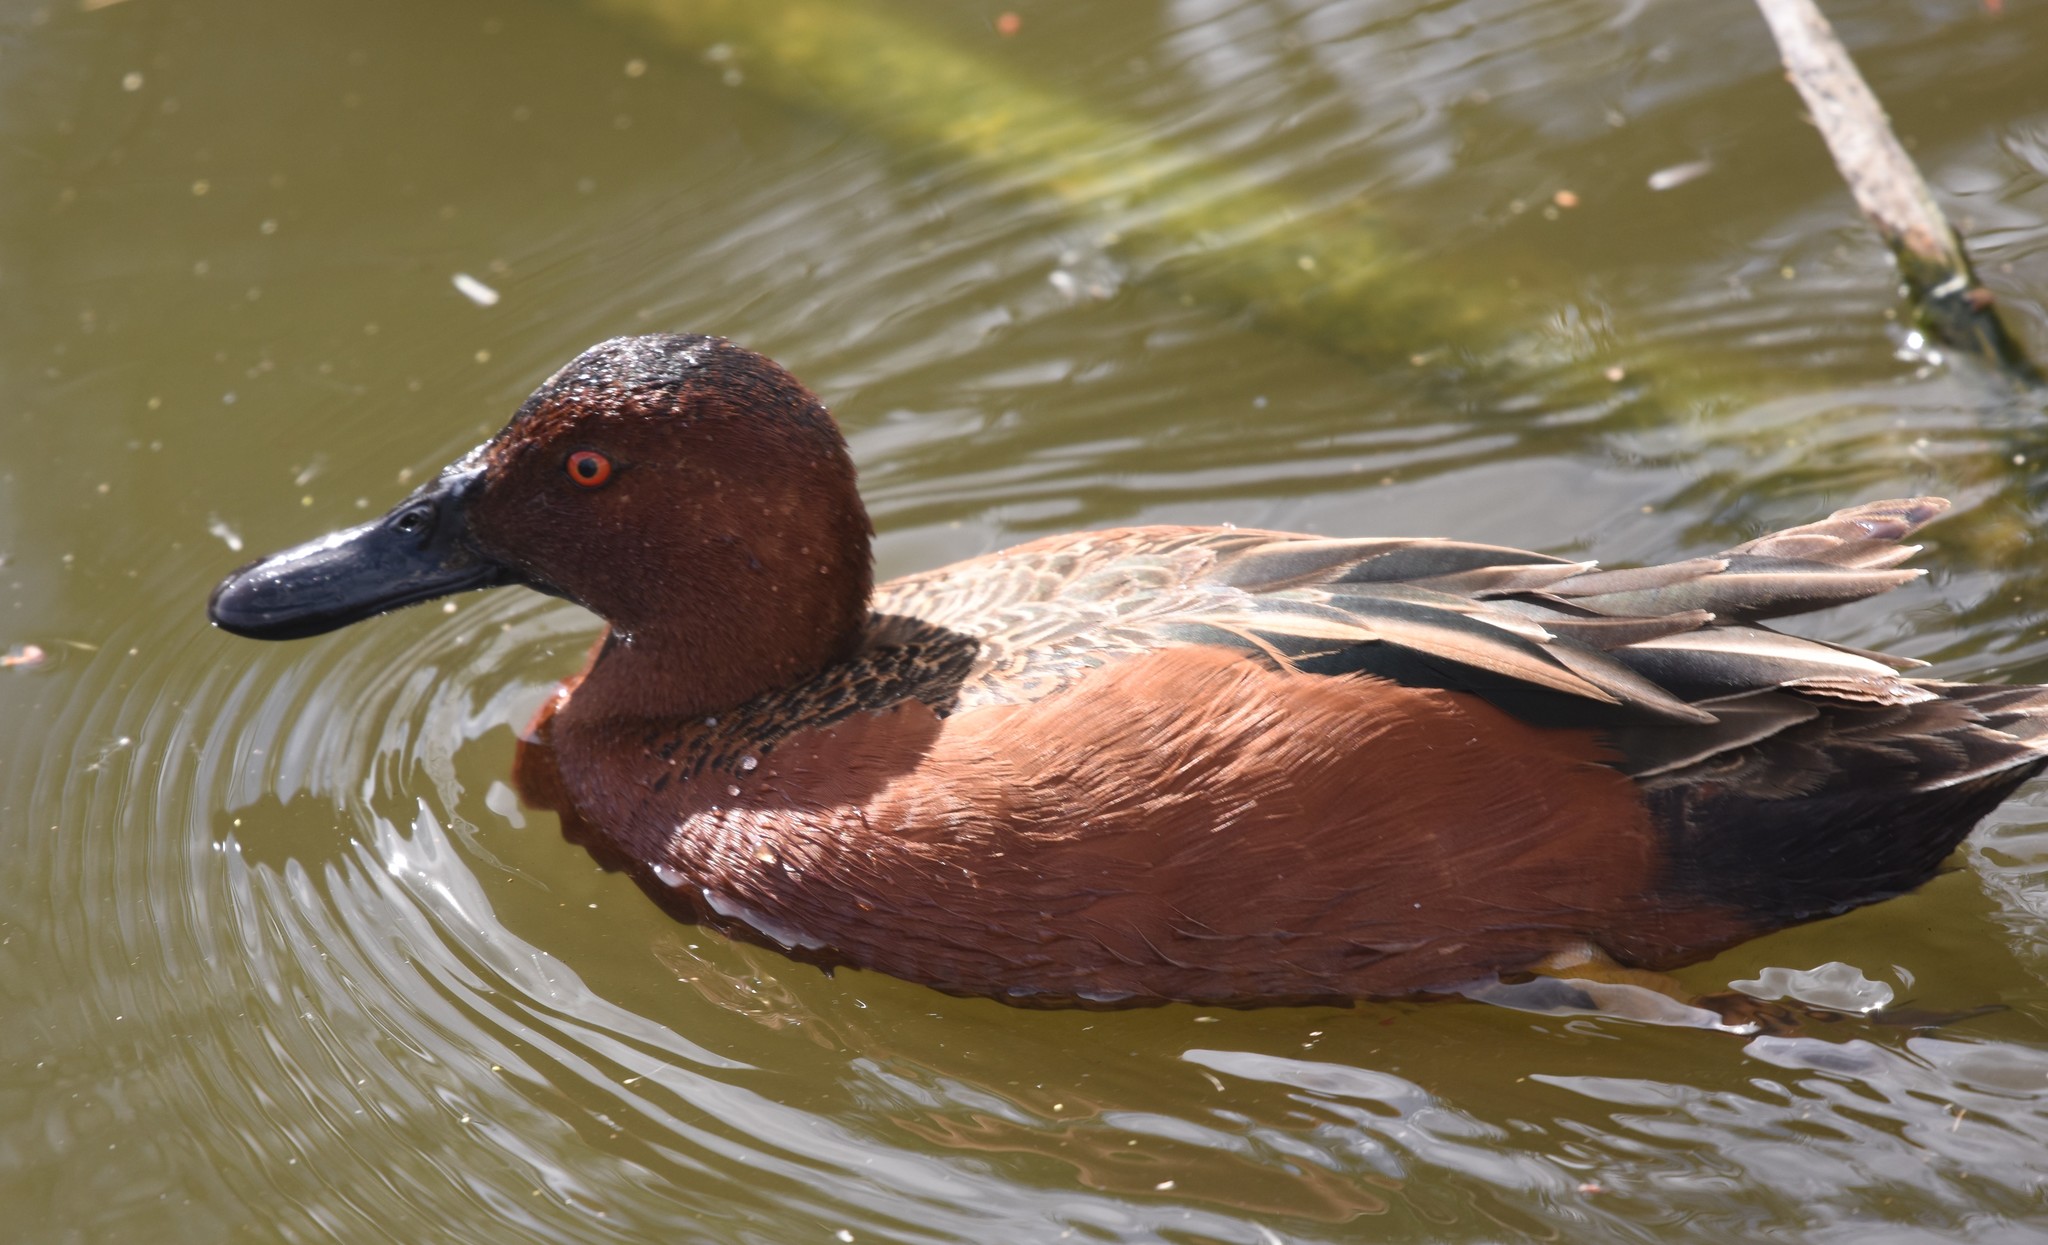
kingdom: Animalia
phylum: Chordata
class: Aves
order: Anseriformes
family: Anatidae
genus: Spatula
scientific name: Spatula cyanoptera
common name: Cinnamon teal
